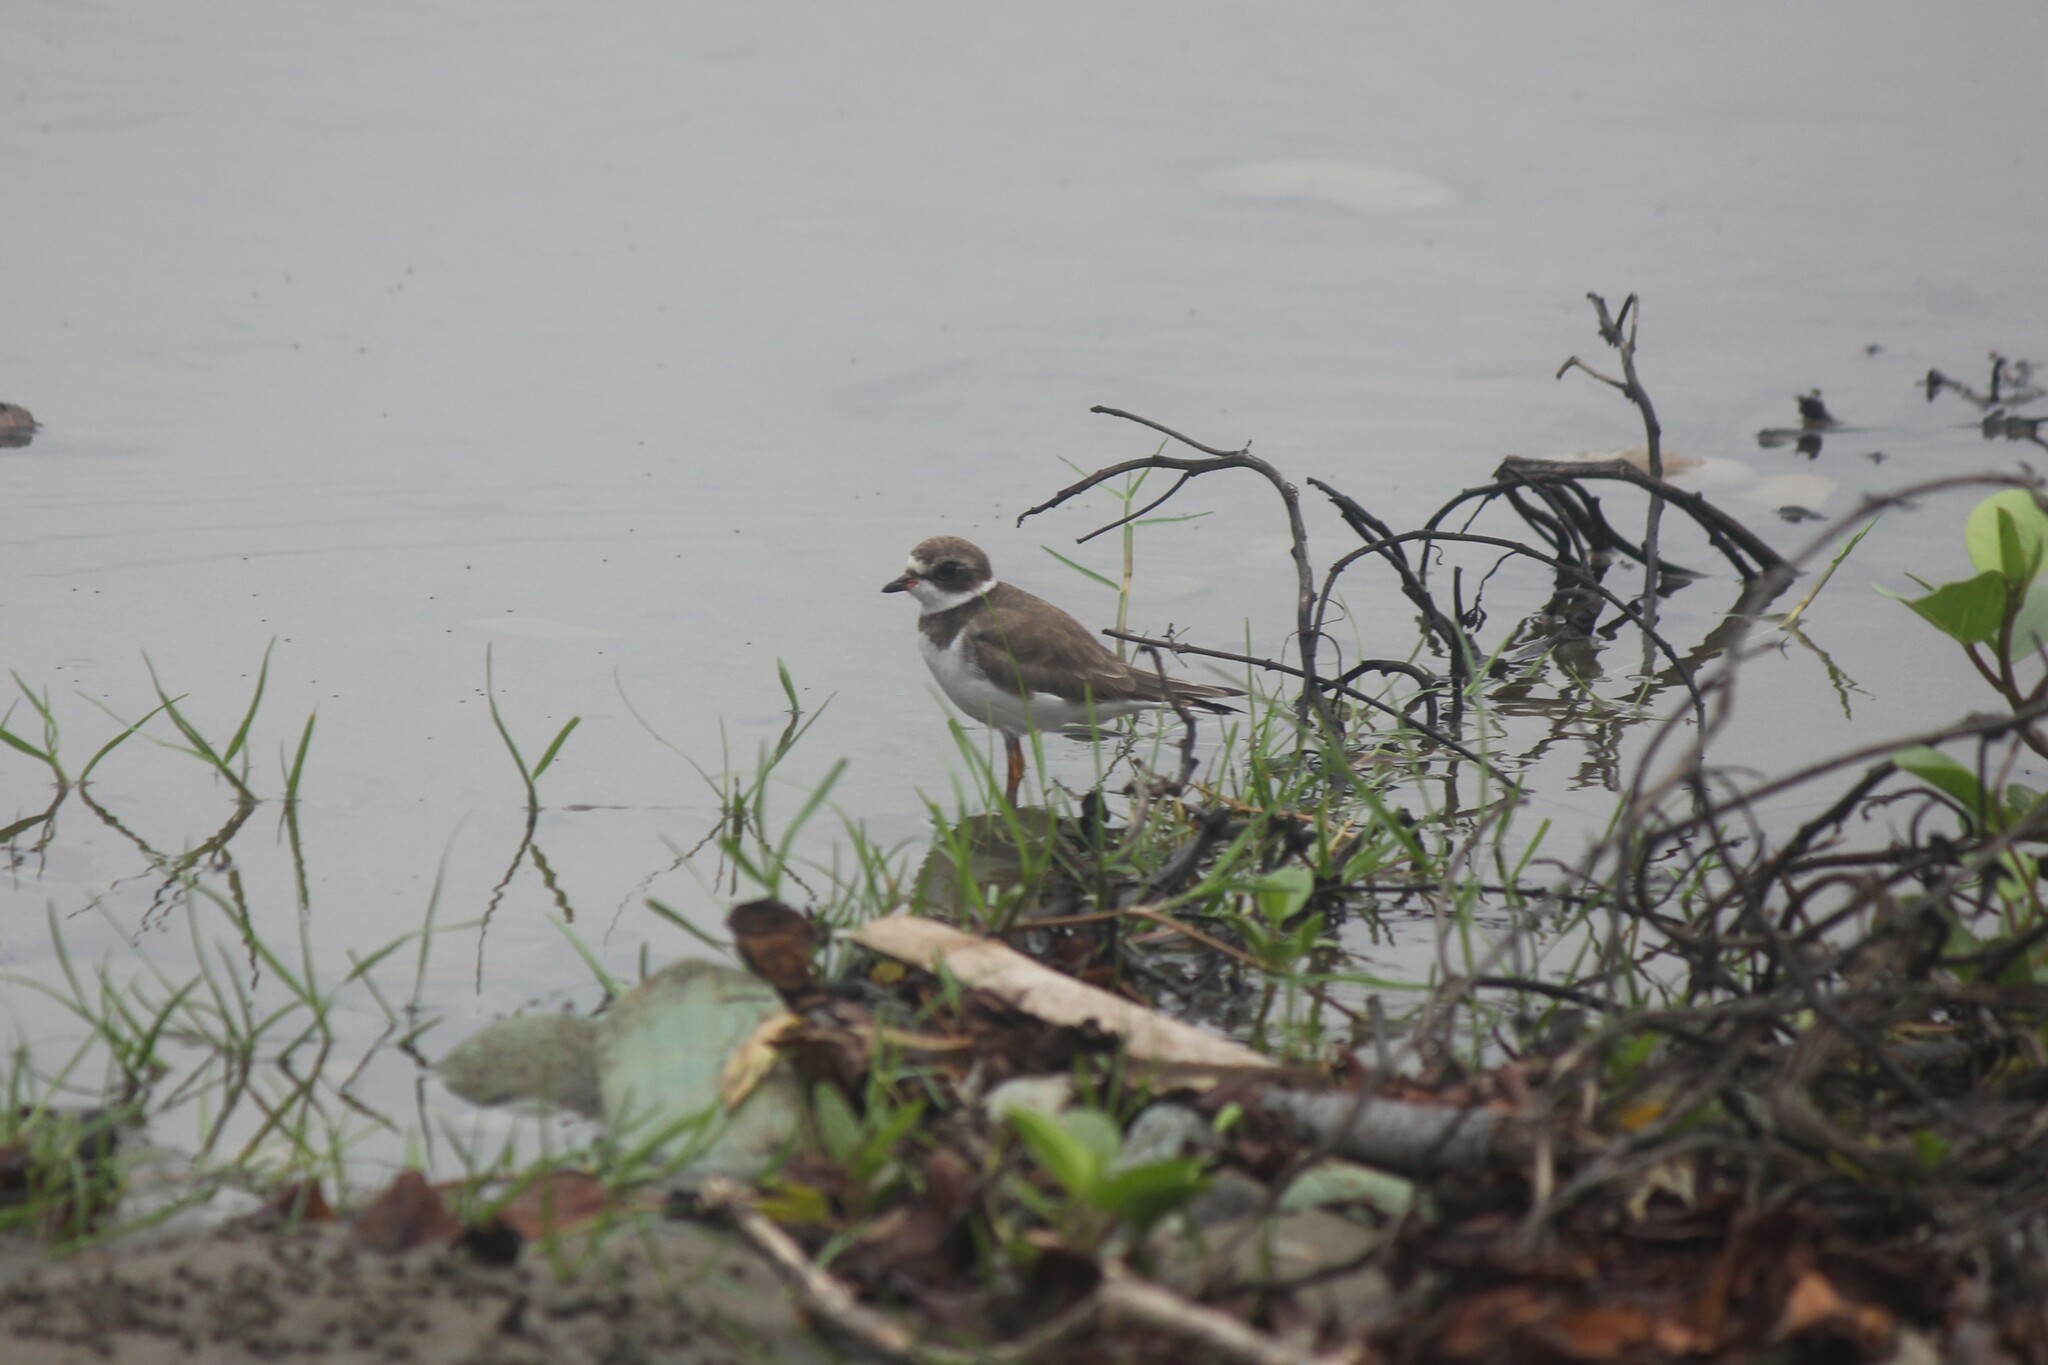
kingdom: Animalia
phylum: Chordata
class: Aves
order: Charadriiformes
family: Charadriidae
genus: Charadrius
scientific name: Charadrius semipalmatus
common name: Semipalmated plover
